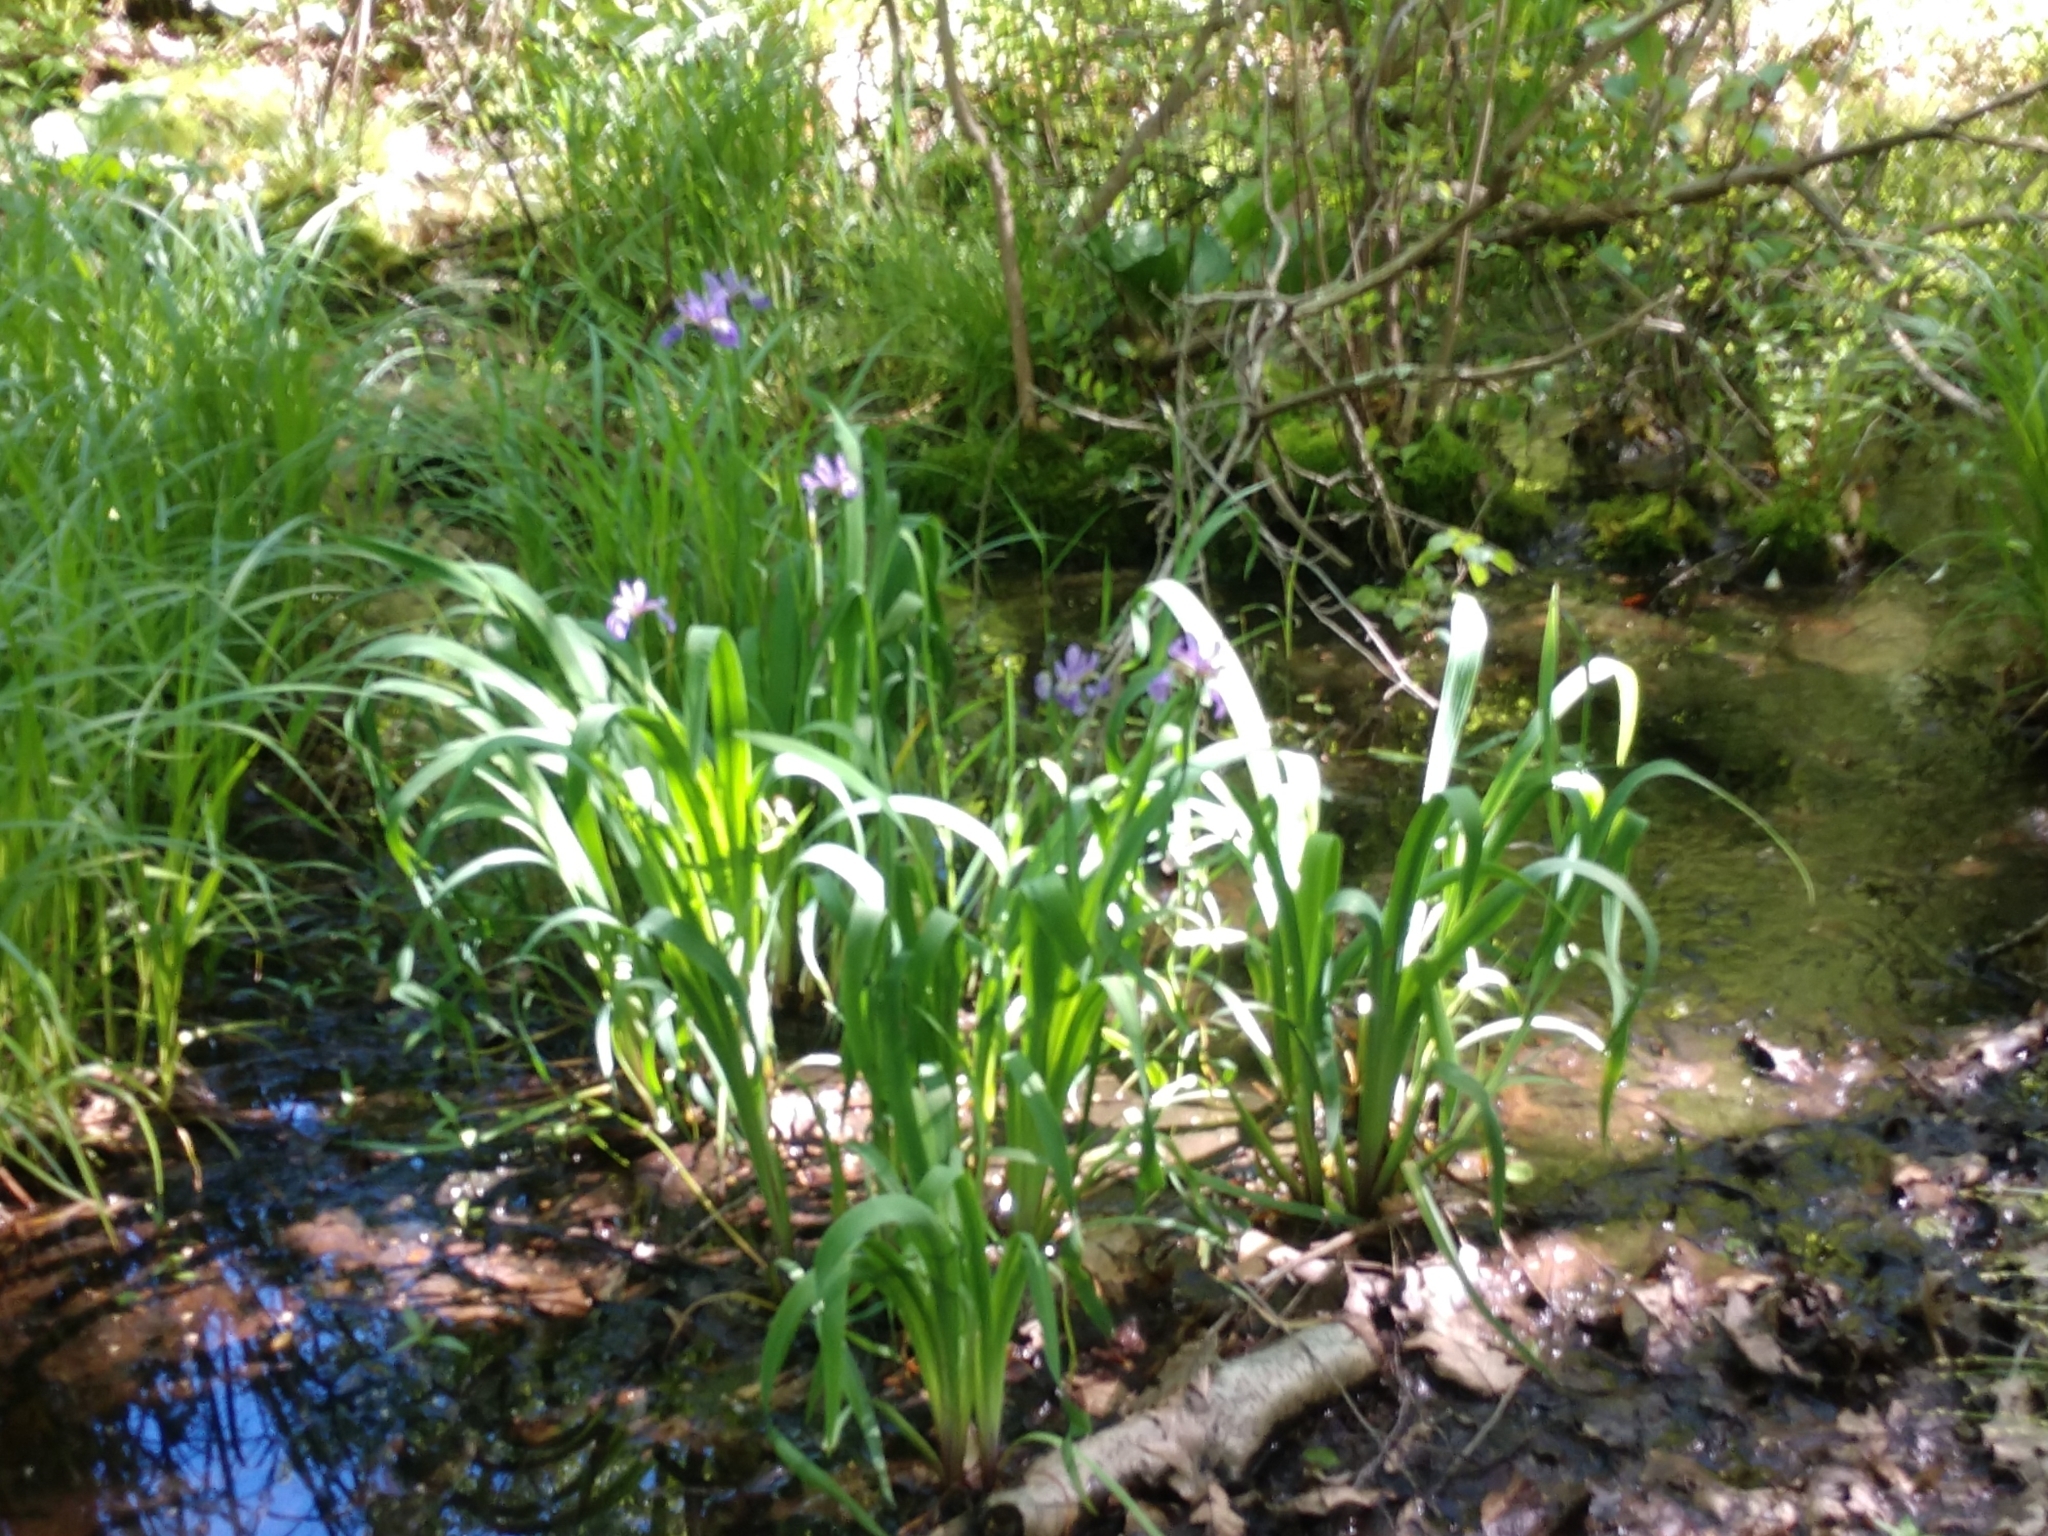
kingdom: Plantae
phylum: Tracheophyta
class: Liliopsida
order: Asparagales
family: Iridaceae
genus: Iris
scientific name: Iris versicolor
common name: Purple iris
